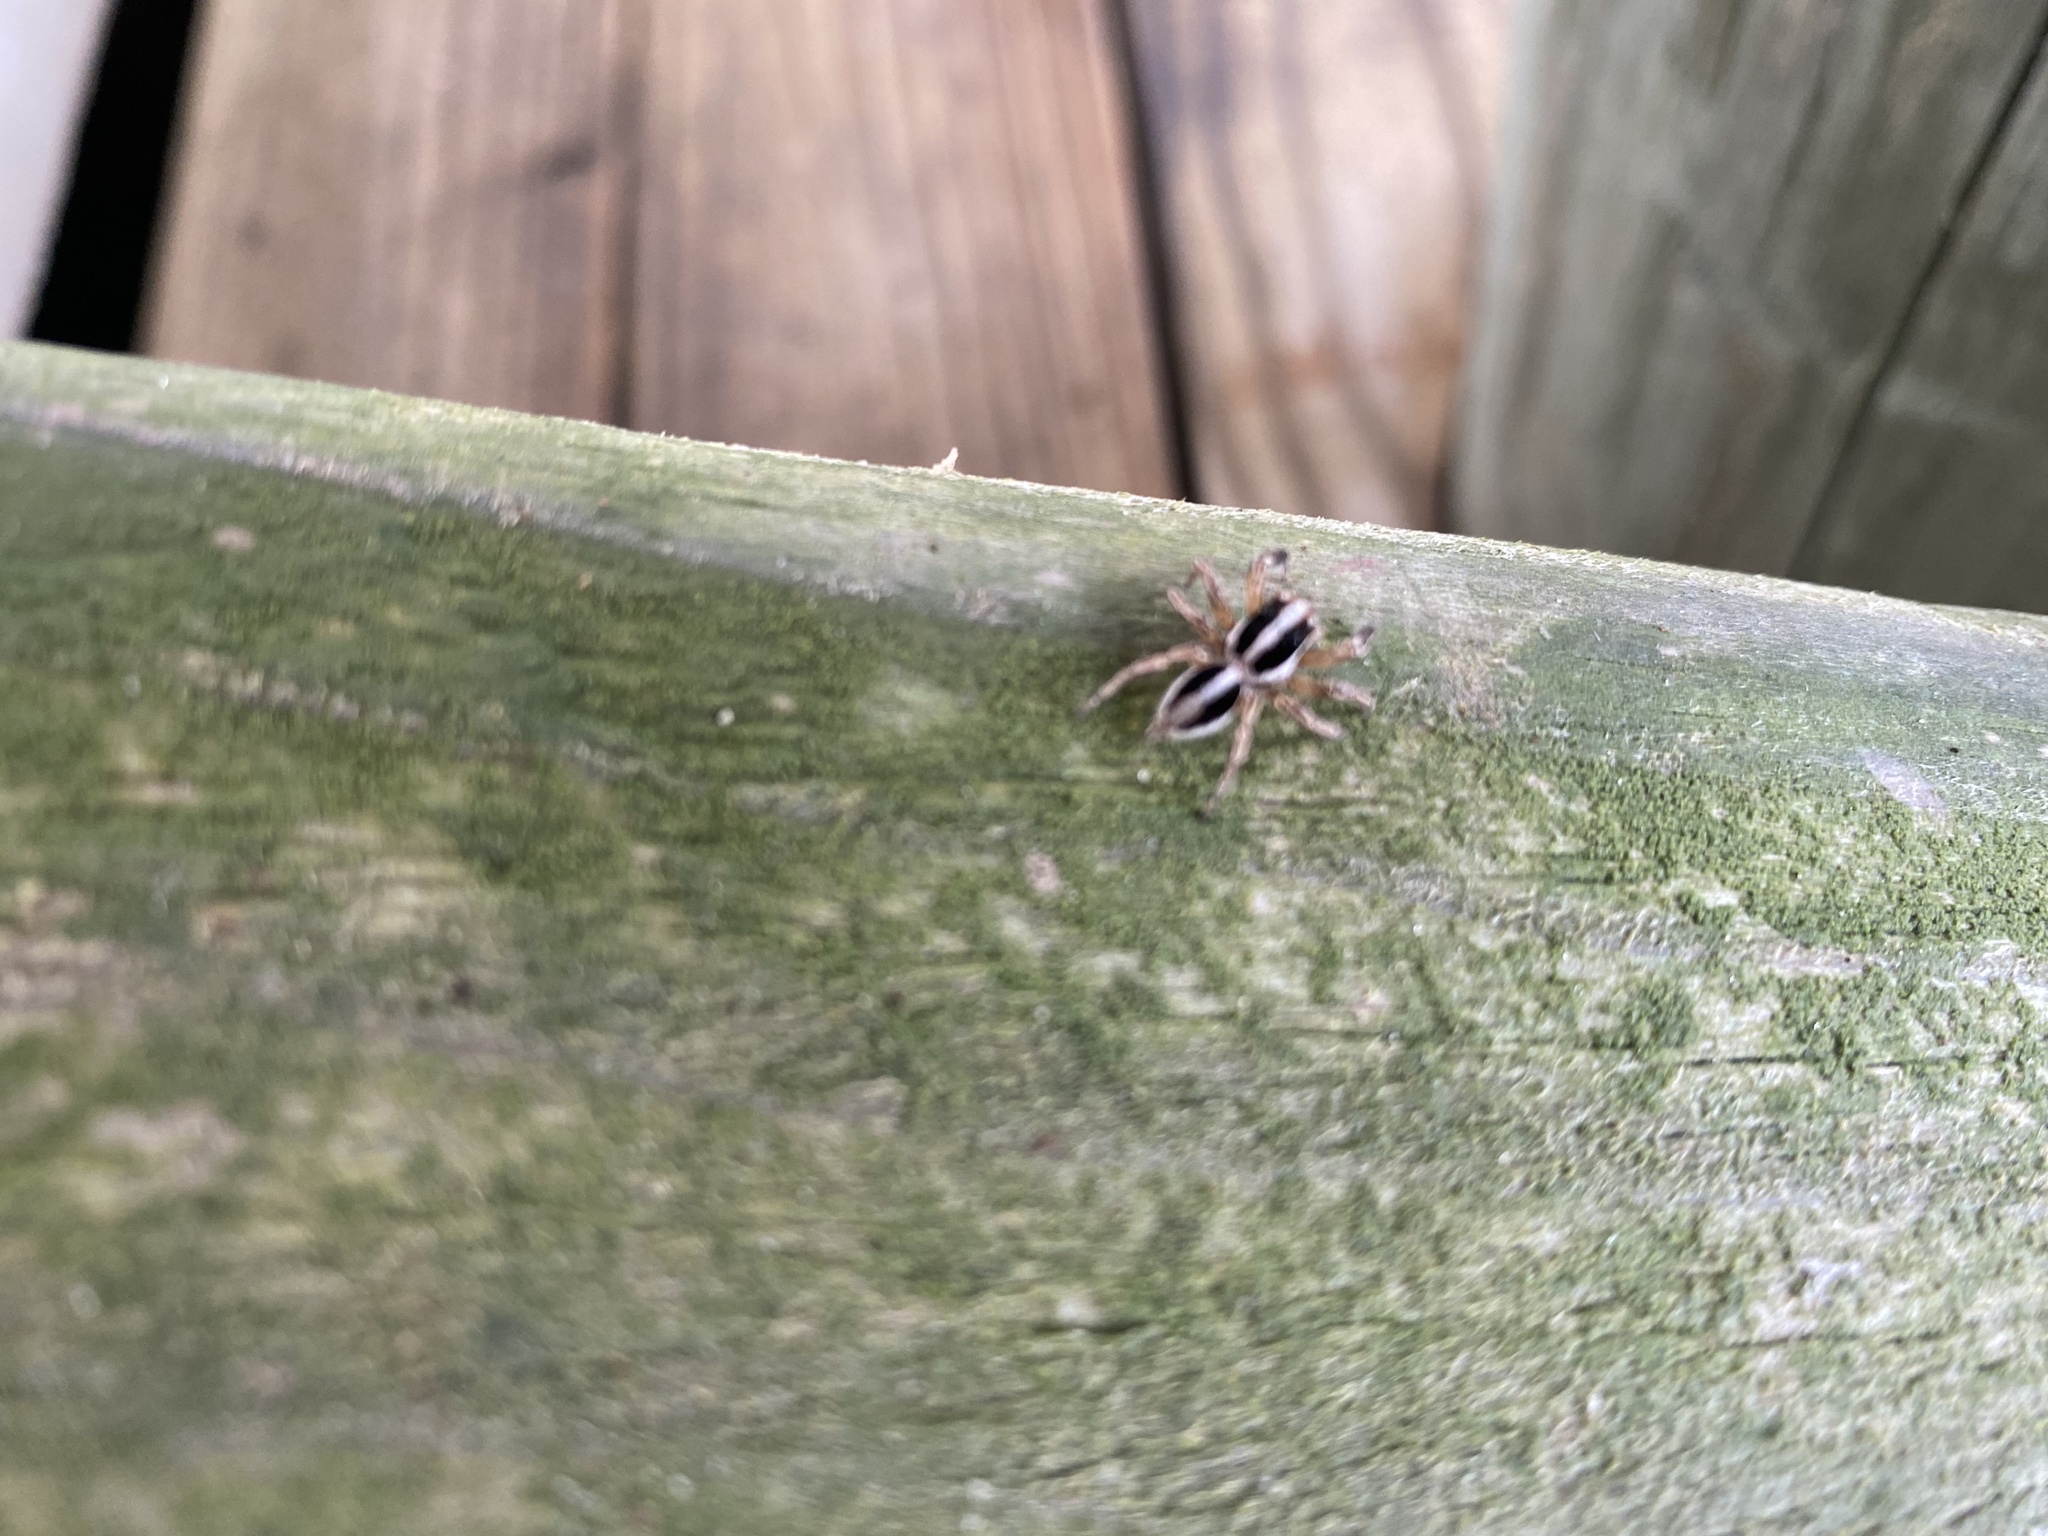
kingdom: Animalia
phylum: Arthropoda
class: Arachnida
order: Araneae
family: Salticidae
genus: Plexippus
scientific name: Plexippus paykulli
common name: Pantropical jumper
